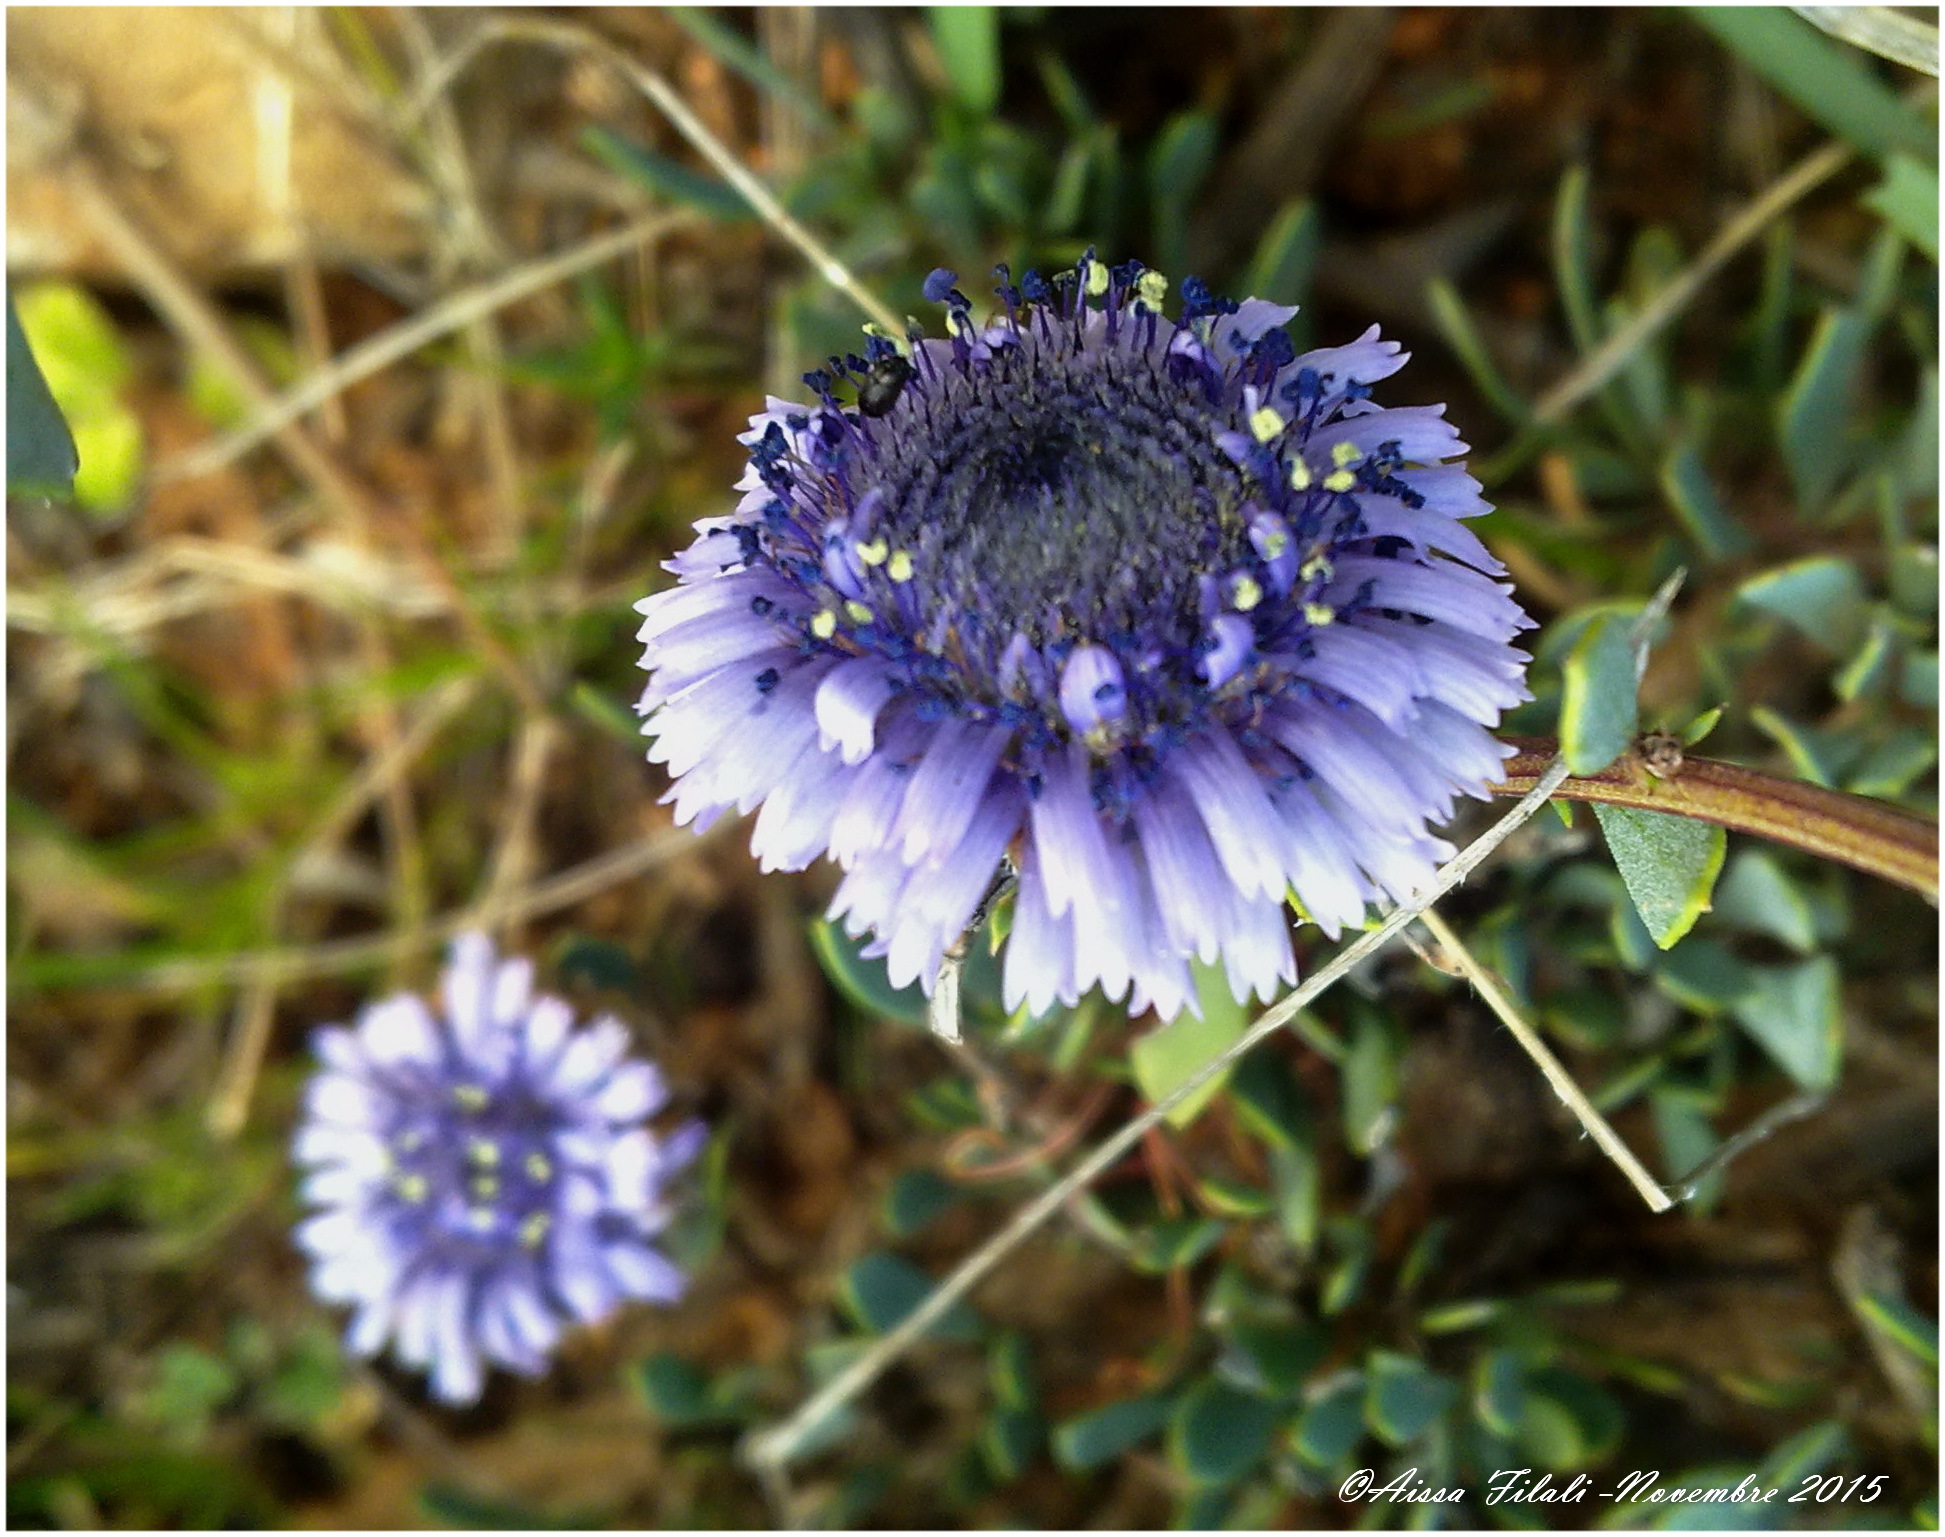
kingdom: Plantae
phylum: Tracheophyta
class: Magnoliopsida
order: Lamiales
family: Plantaginaceae
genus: Globularia
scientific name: Globularia alypum
